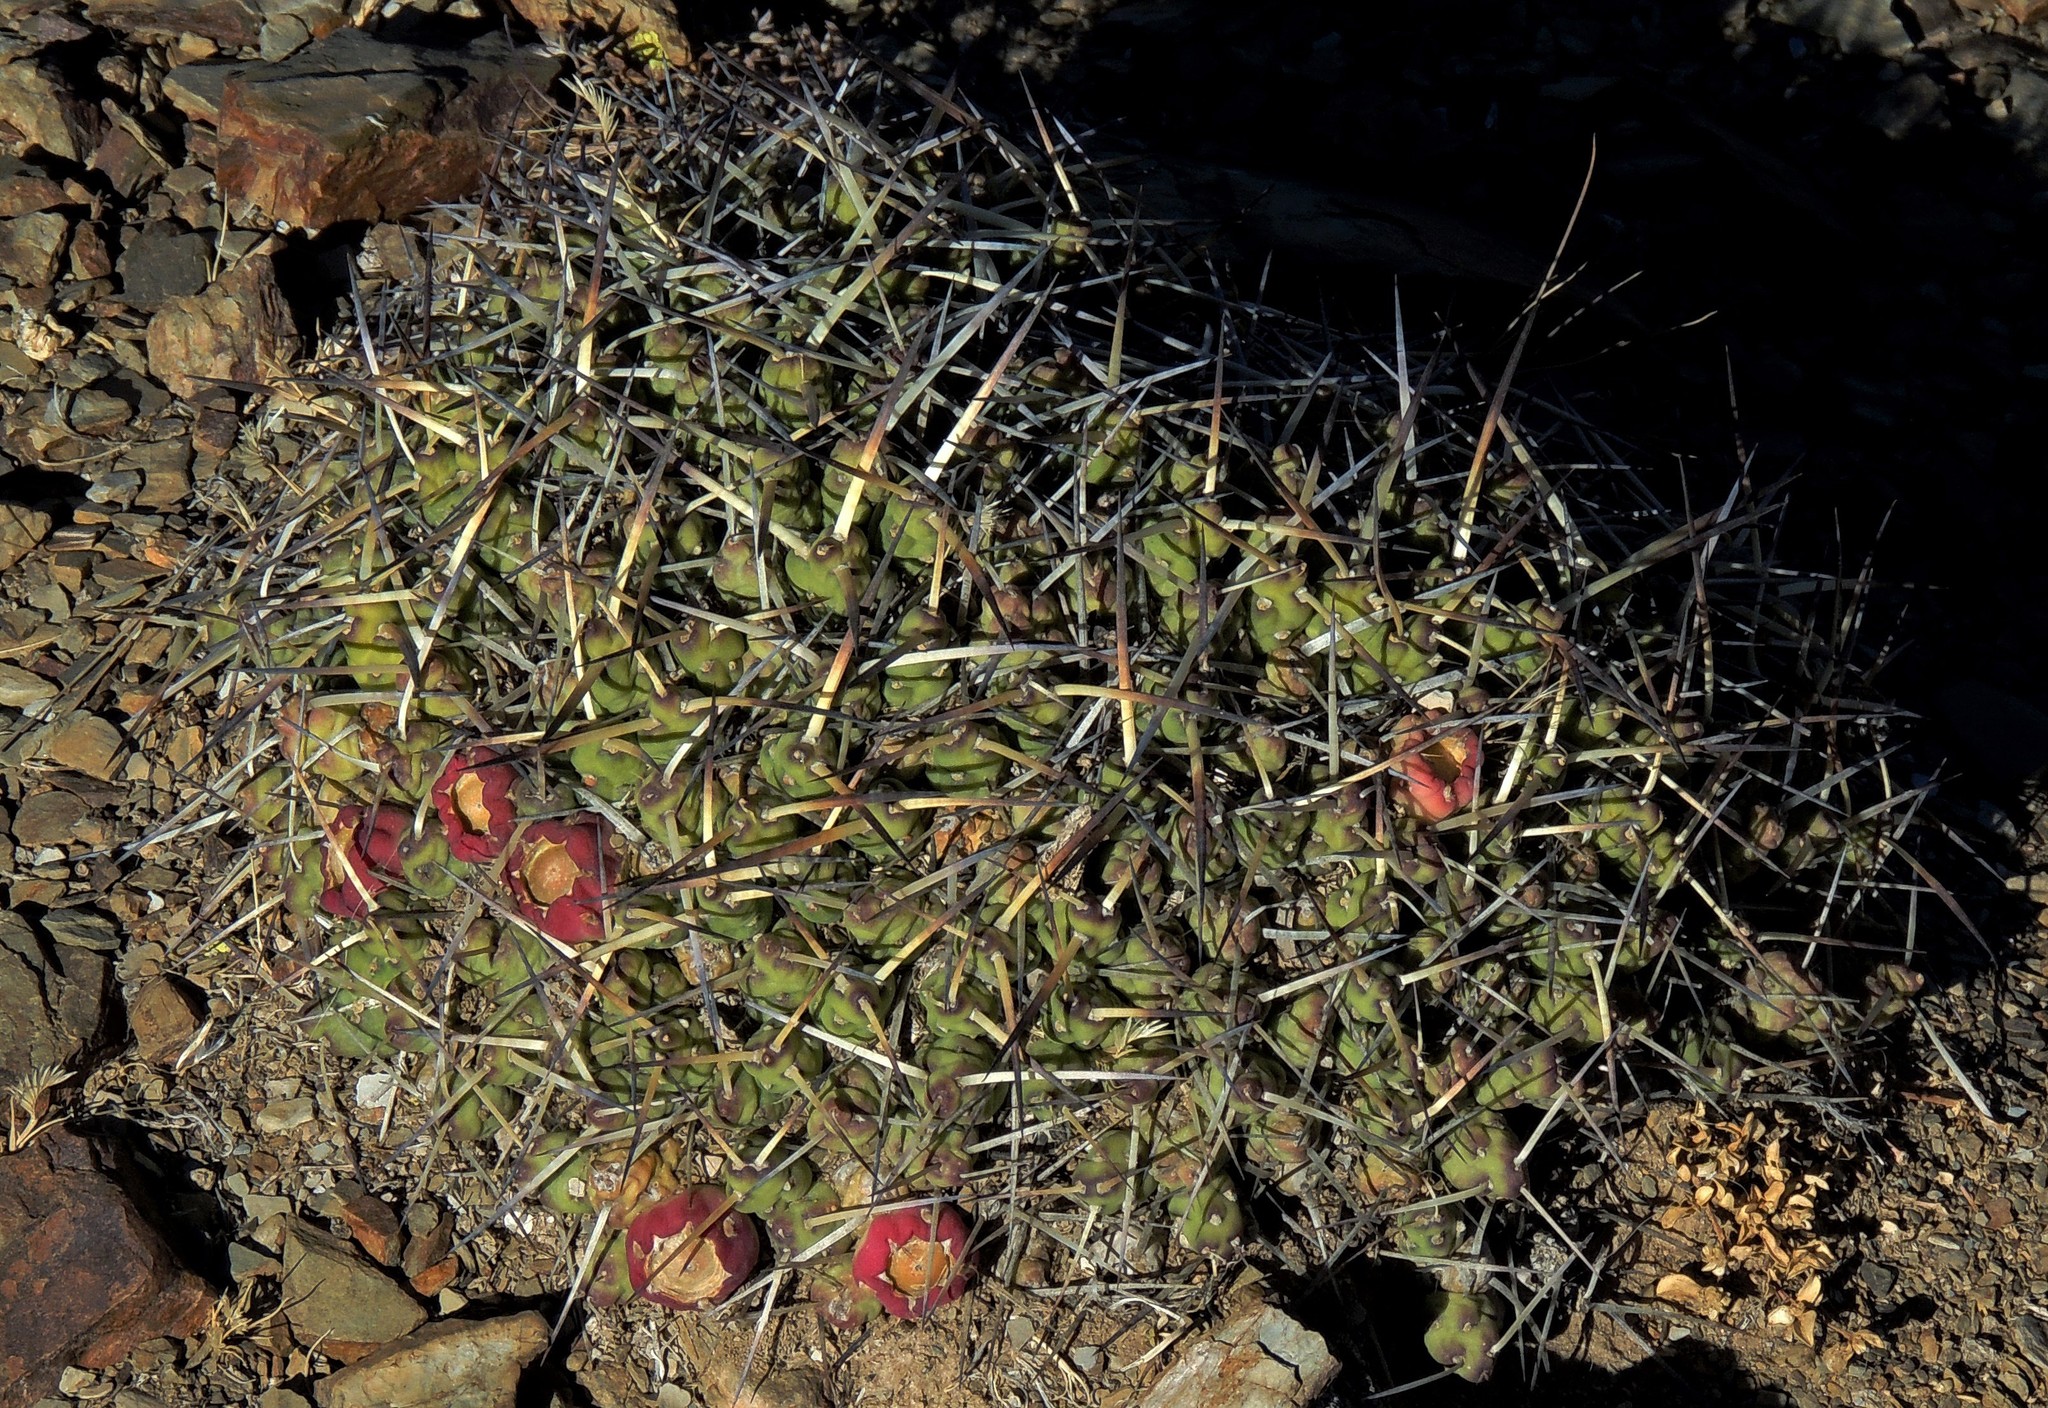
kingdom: Plantae
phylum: Tracheophyta
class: Magnoliopsida
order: Caryophyllales
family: Cactaceae
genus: Maihueniopsis
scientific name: Maihueniopsis glomerata
